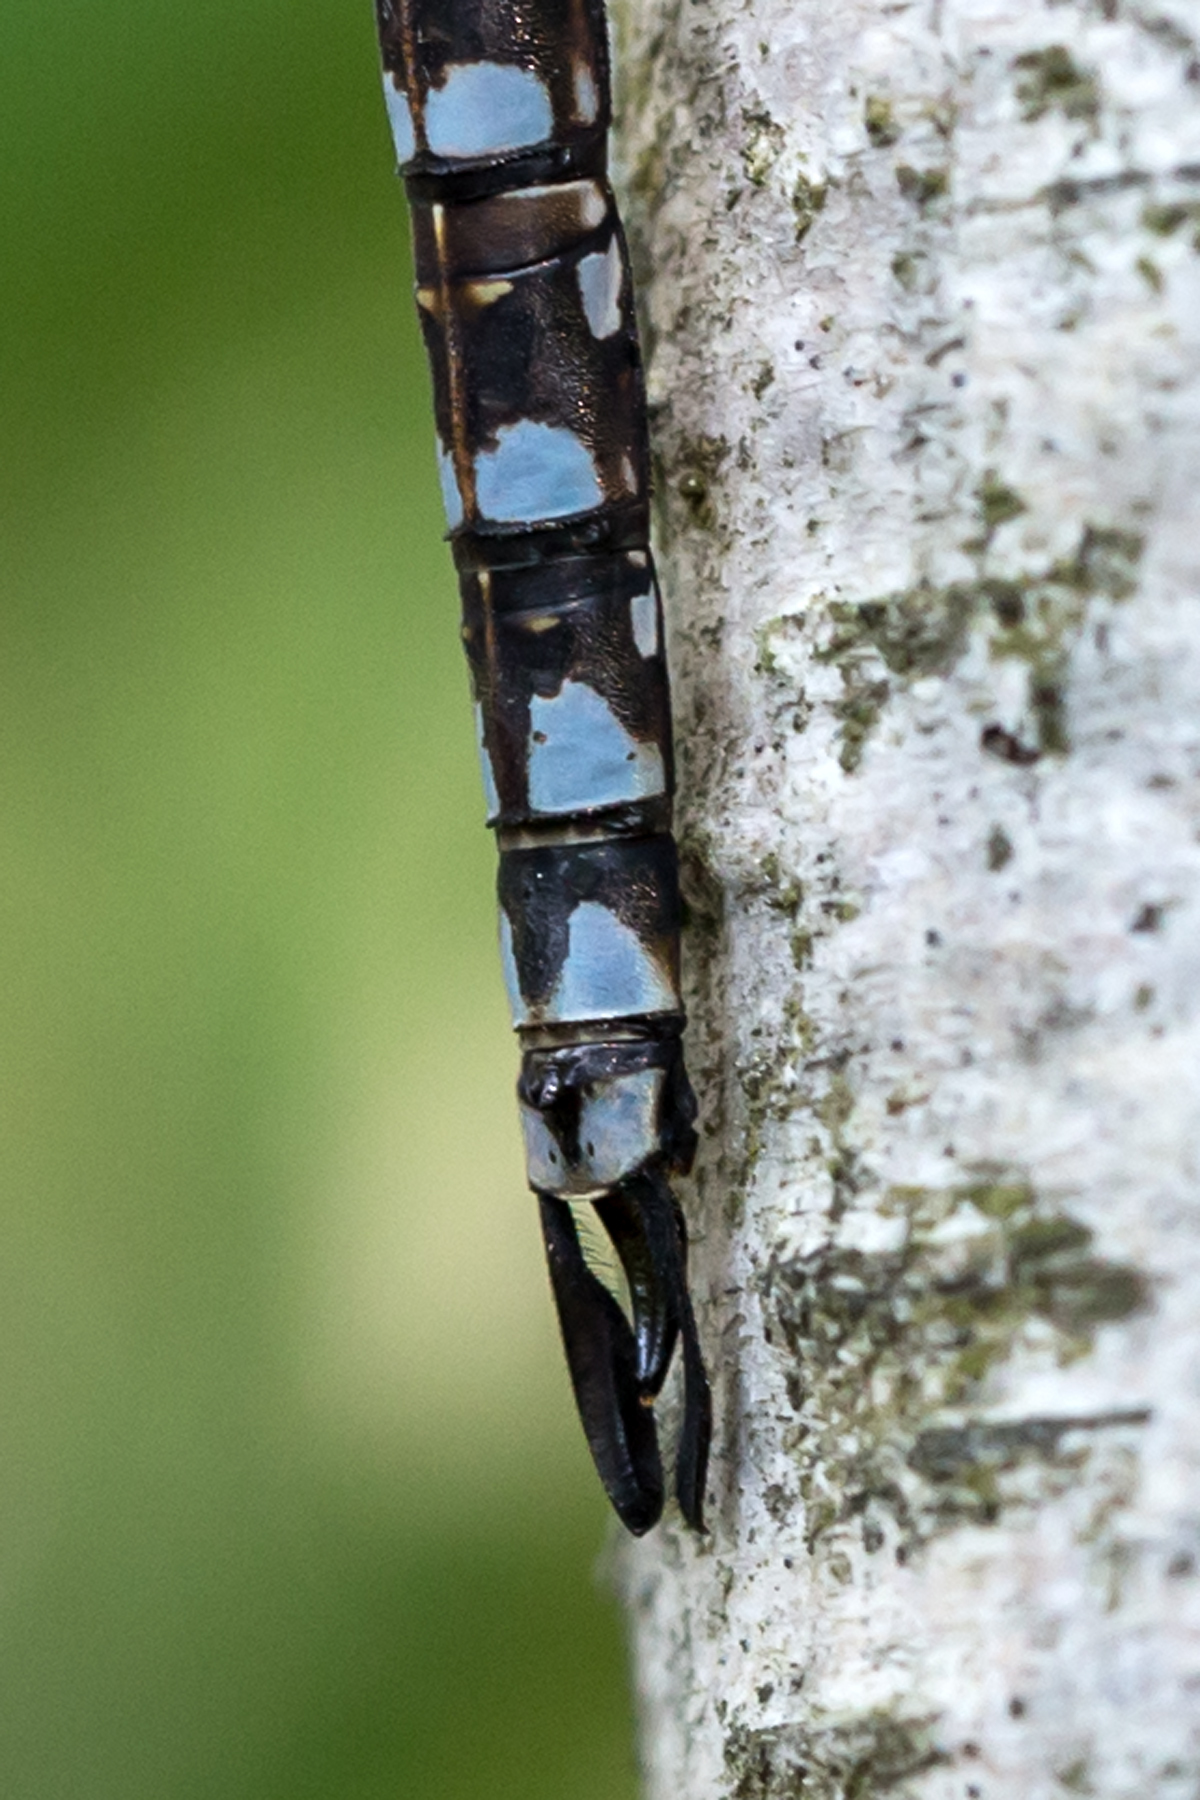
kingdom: Animalia
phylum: Arthropoda
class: Insecta
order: Odonata
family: Aeshnidae
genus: Aeshna
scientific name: Aeshna canadensis
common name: Canada darner
